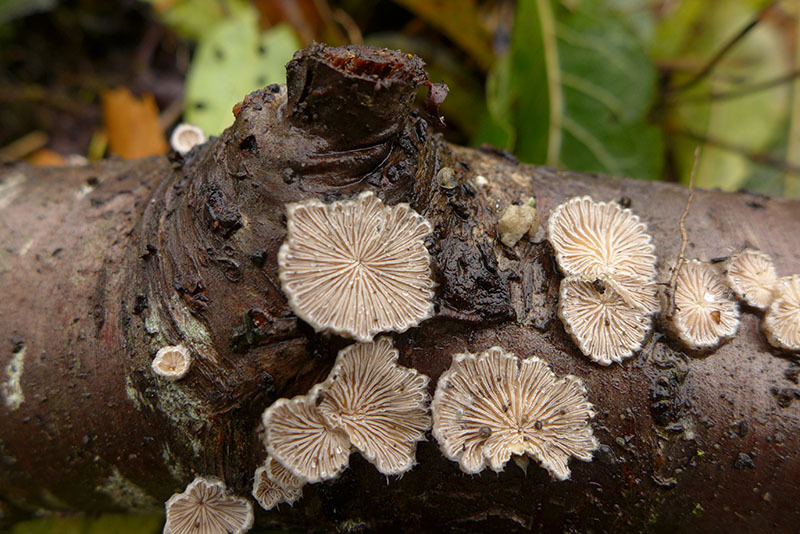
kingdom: Fungi
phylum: Basidiomycota
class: Agaricomycetes
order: Agaricales
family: Schizophyllaceae
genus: Schizophyllum
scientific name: Schizophyllum commune
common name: Common porecrust
